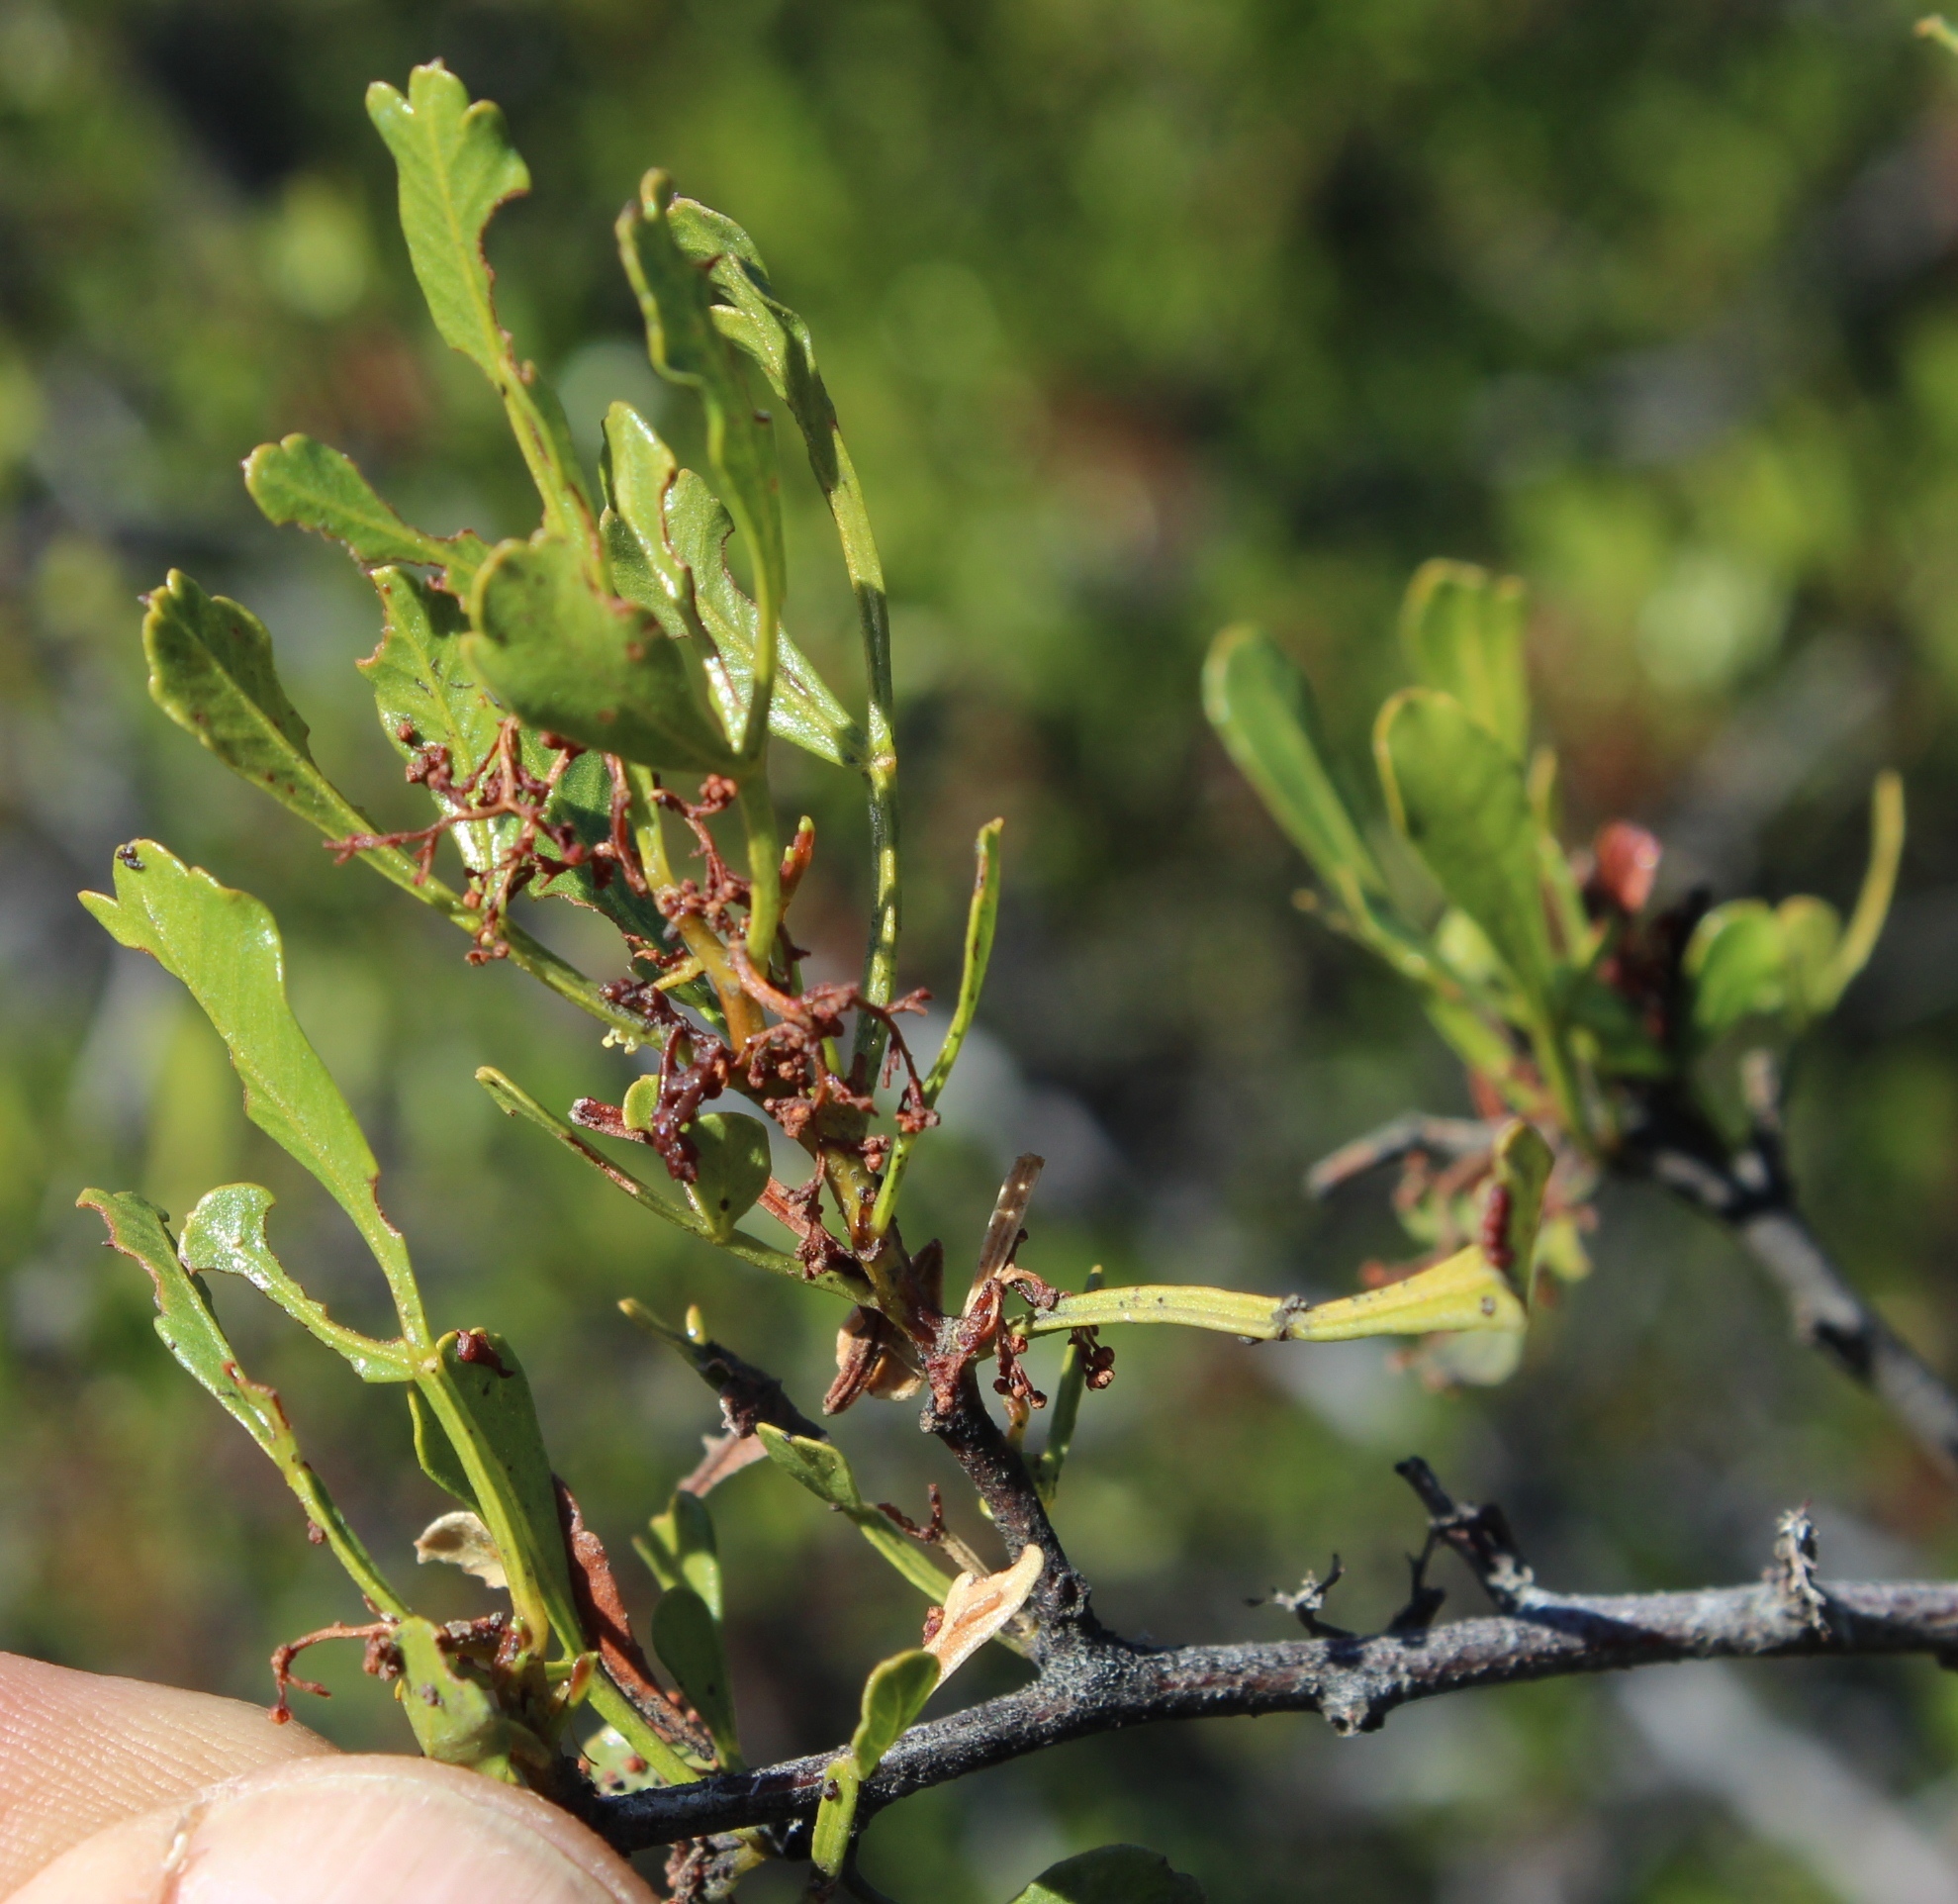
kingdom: Plantae
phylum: Tracheophyta
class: Magnoliopsida
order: Sapindales
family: Anacardiaceae
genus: Searsia
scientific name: Searsia undulata
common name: Namaqua kunibush
